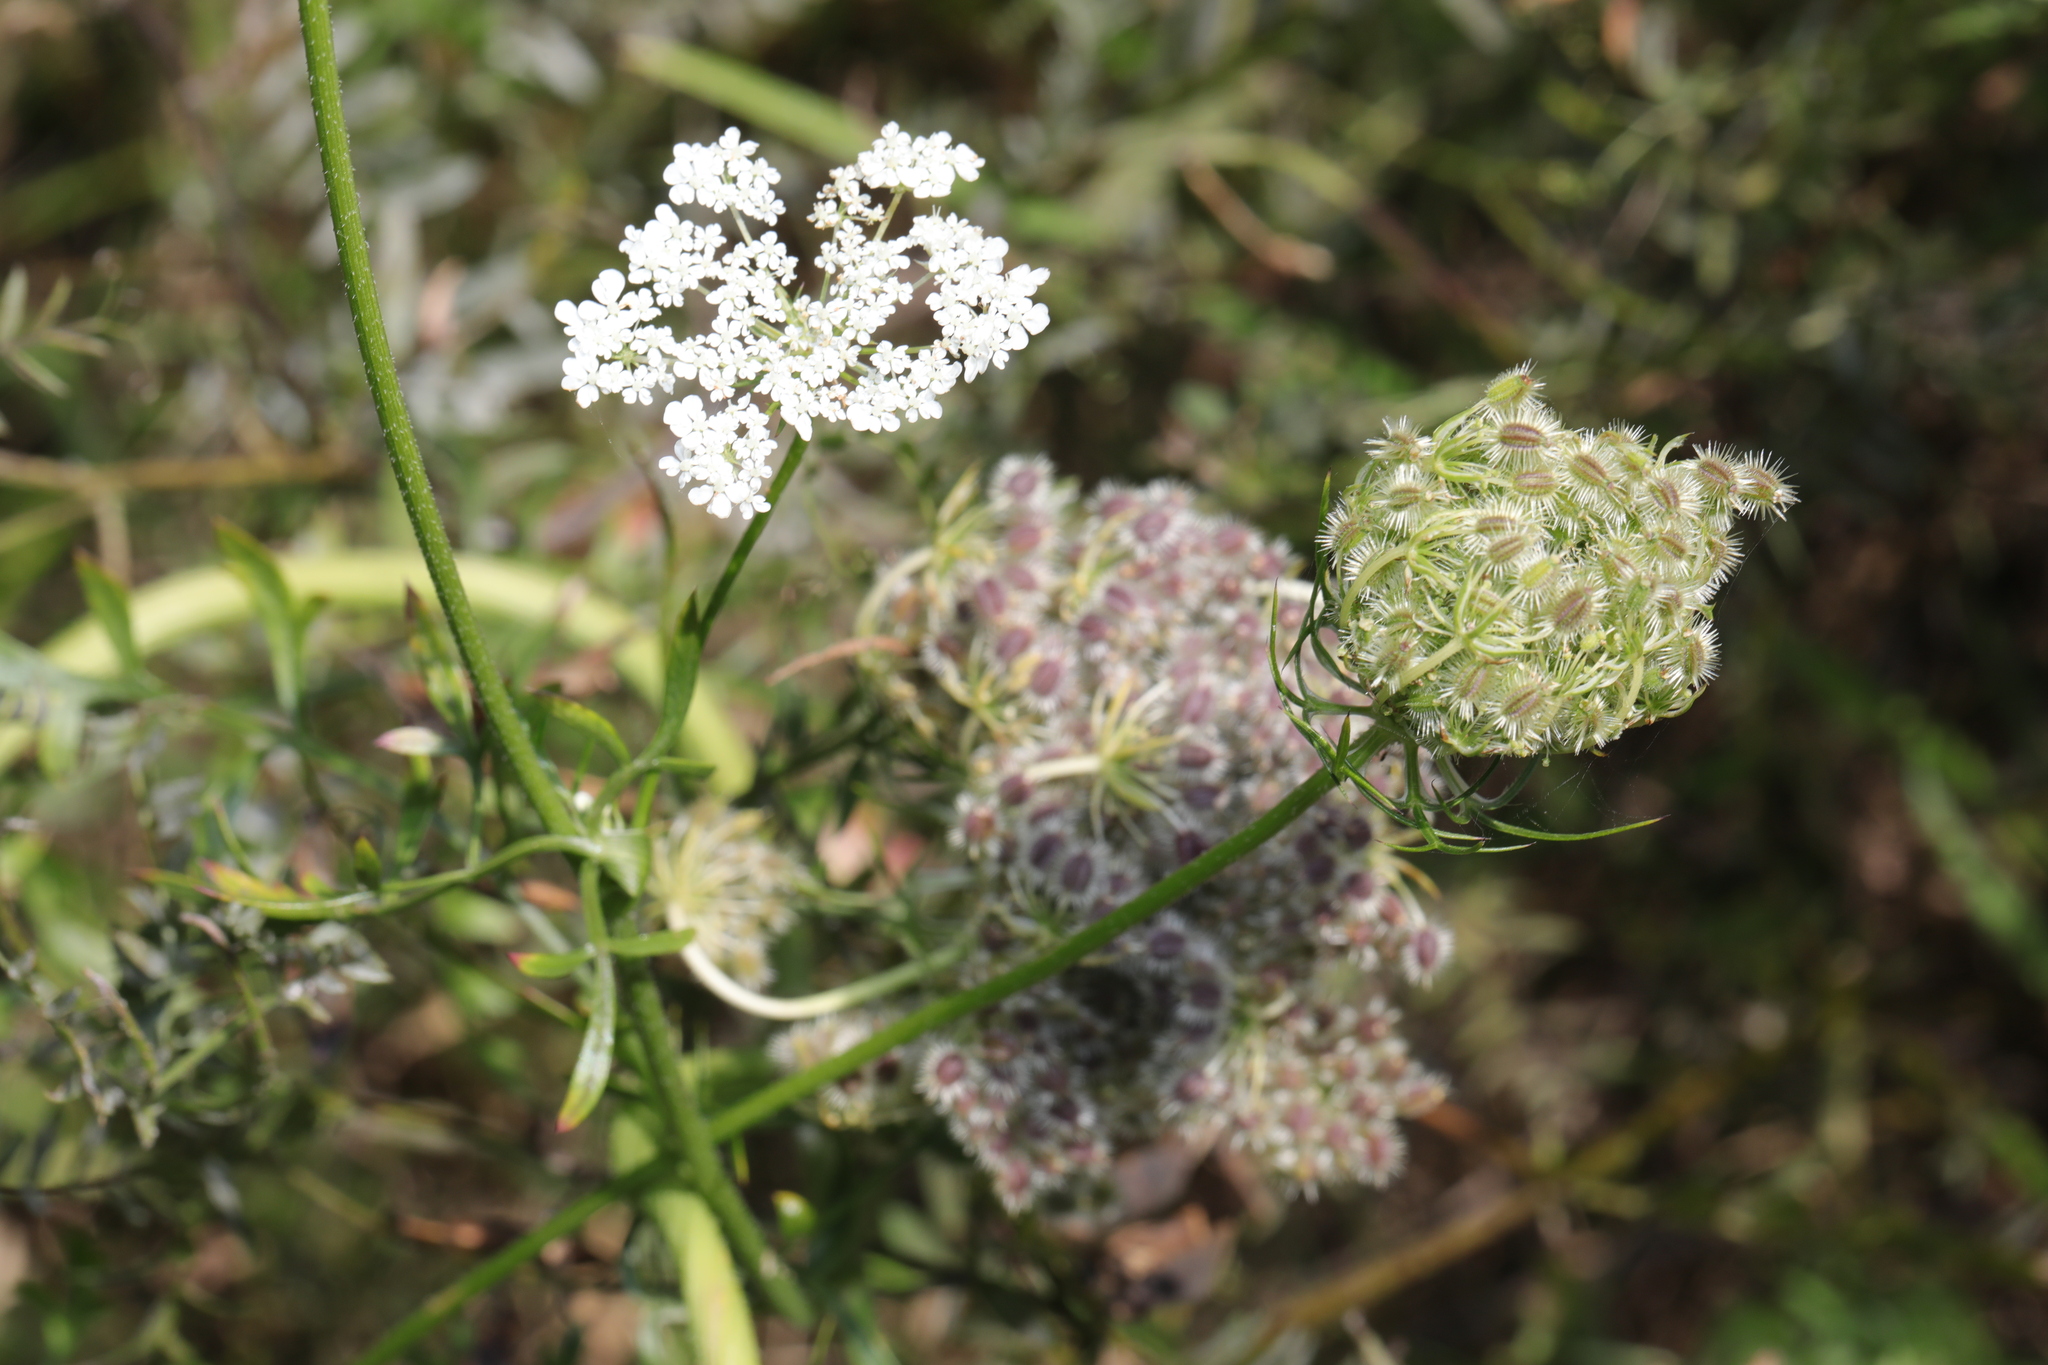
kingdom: Plantae
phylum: Tracheophyta
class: Magnoliopsida
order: Apiales
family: Apiaceae
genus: Daucus
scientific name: Daucus carota
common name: Wild carrot
